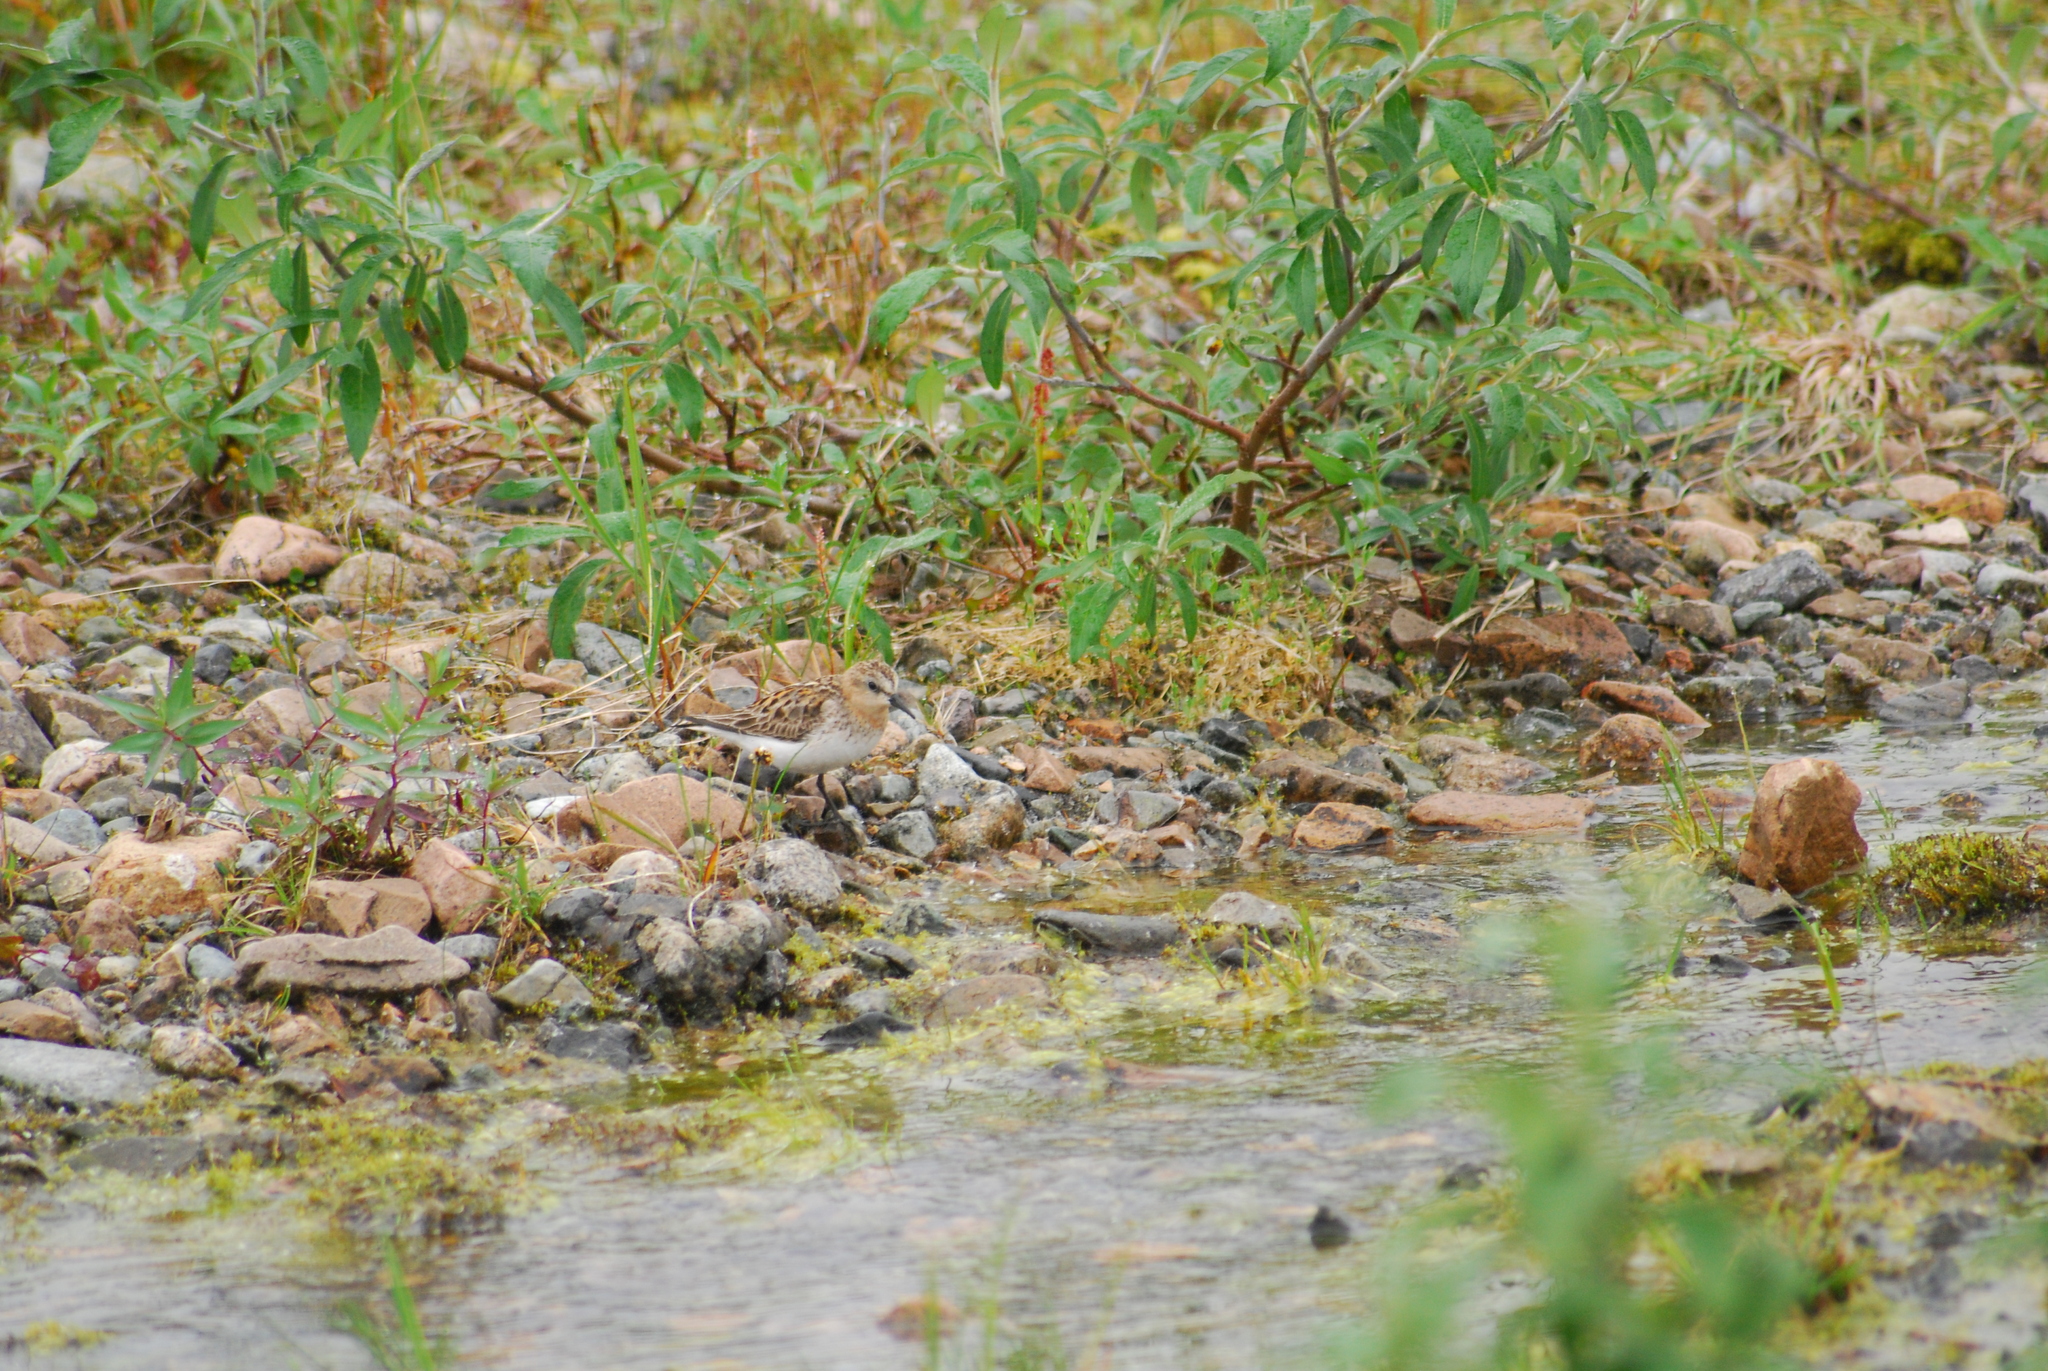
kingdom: Animalia
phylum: Chordata
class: Aves
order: Charadriiformes
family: Scolopacidae
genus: Calidris
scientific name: Calidris ruficollis
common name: Red-necked stint
